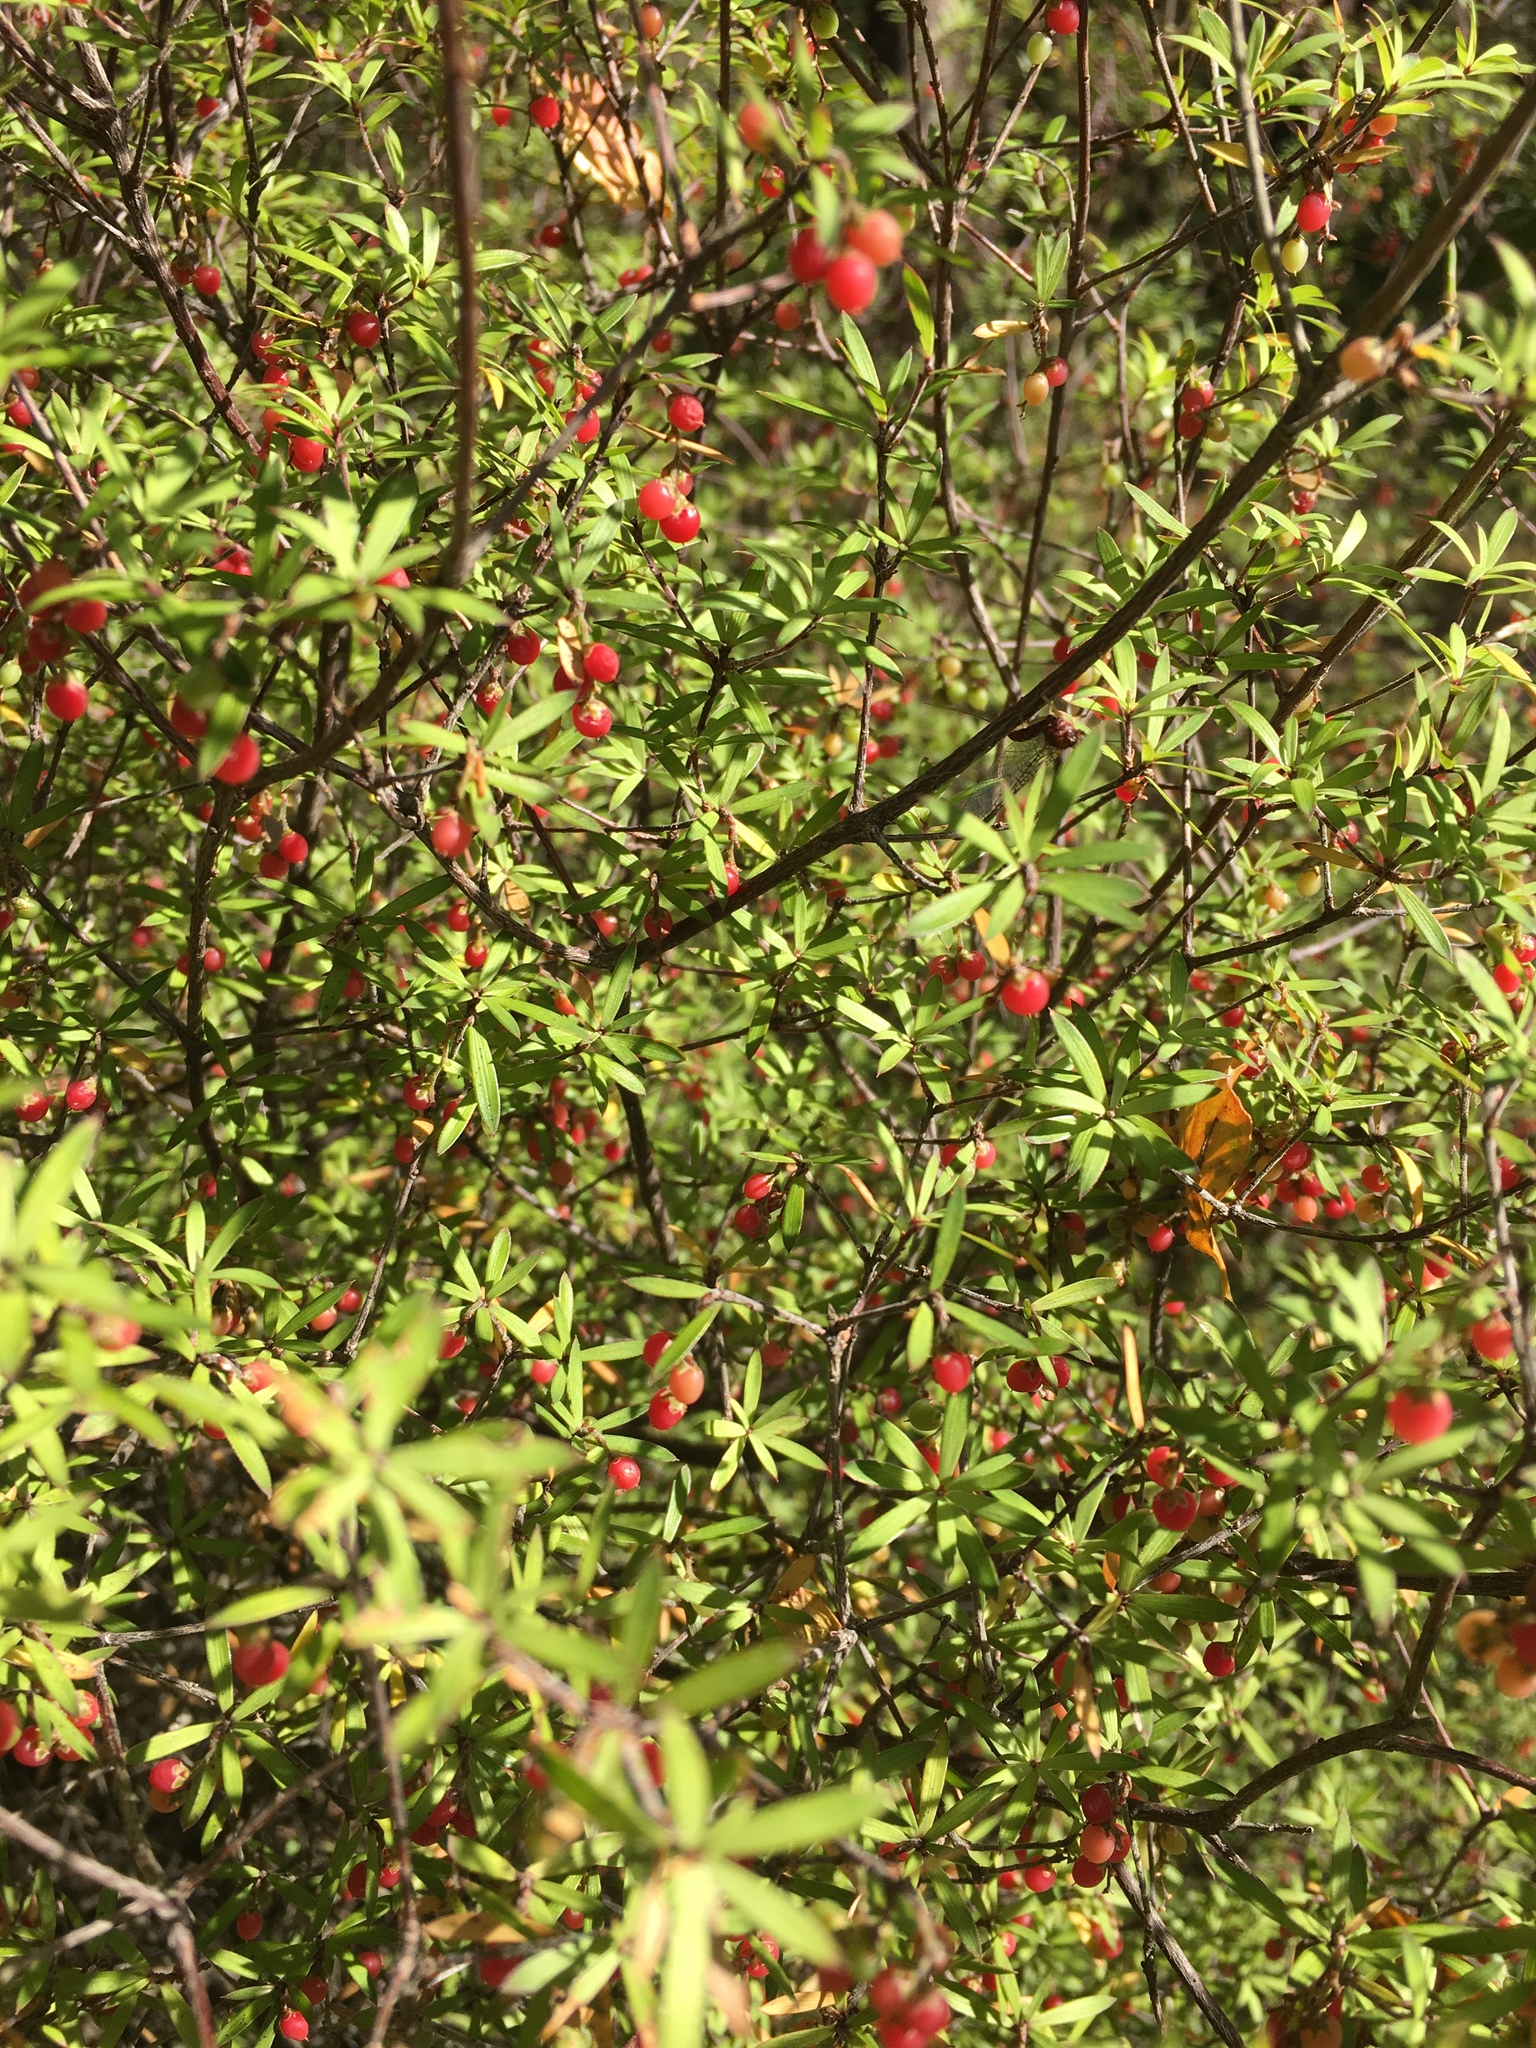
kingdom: Plantae
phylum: Tracheophyta
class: Magnoliopsida
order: Ericales
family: Ericaceae
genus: Leucopogon
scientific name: Leucopogon fasciculatus
